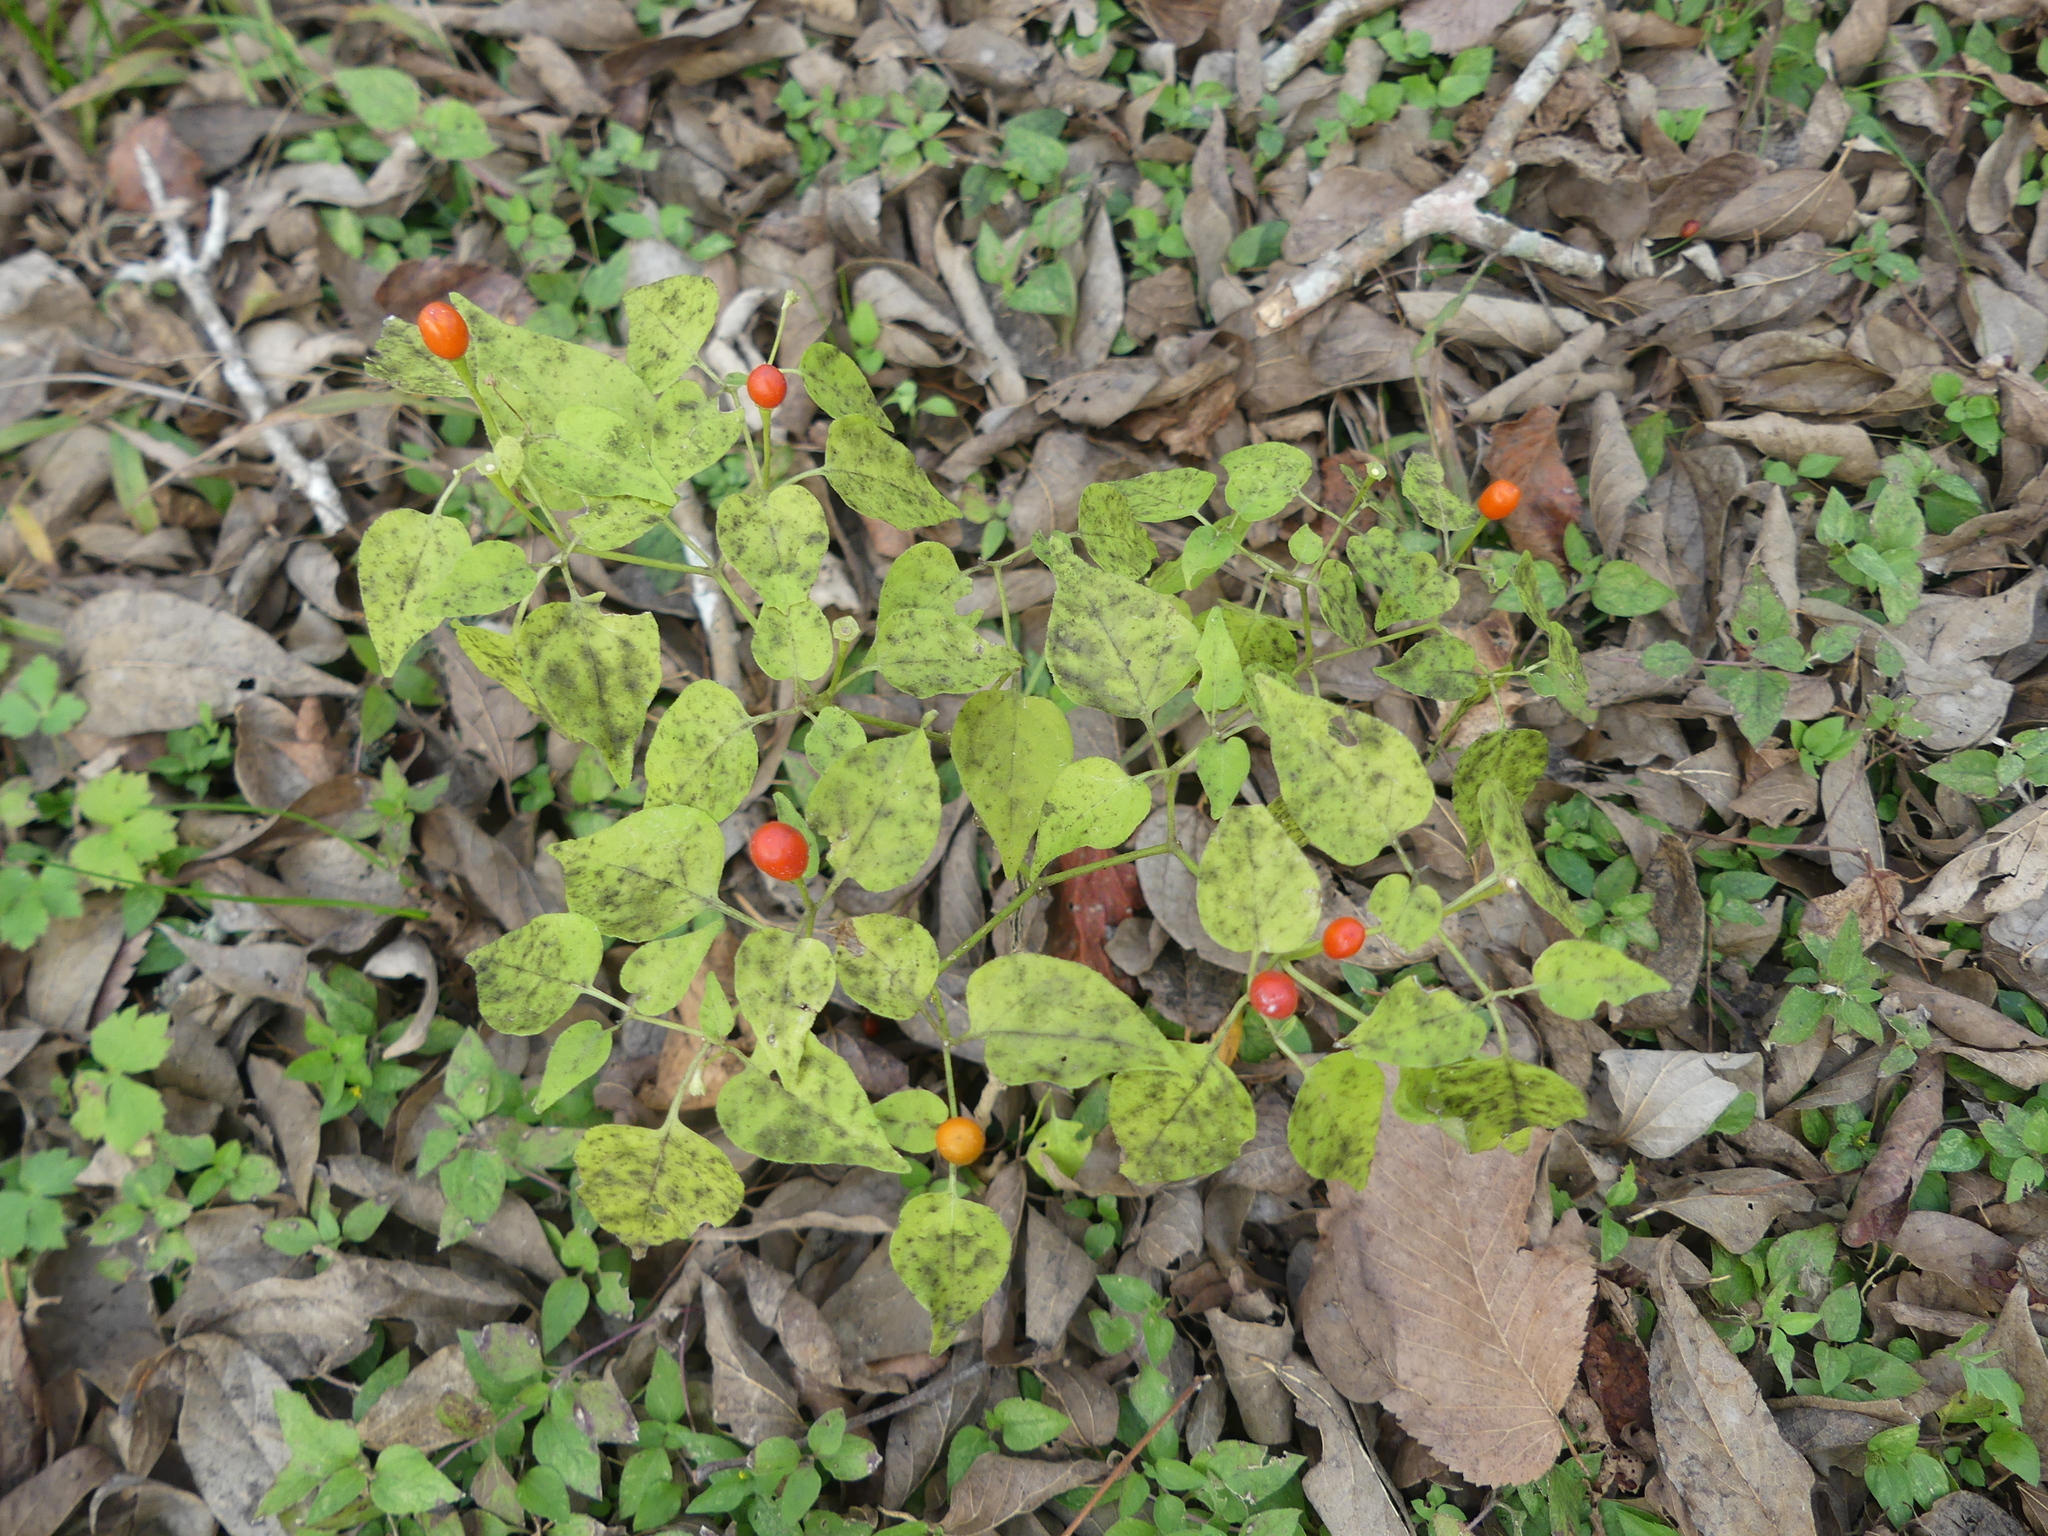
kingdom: Plantae
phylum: Tracheophyta
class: Magnoliopsida
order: Solanales
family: Solanaceae
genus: Capsicum
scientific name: Capsicum annuum
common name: Sweet pepper
